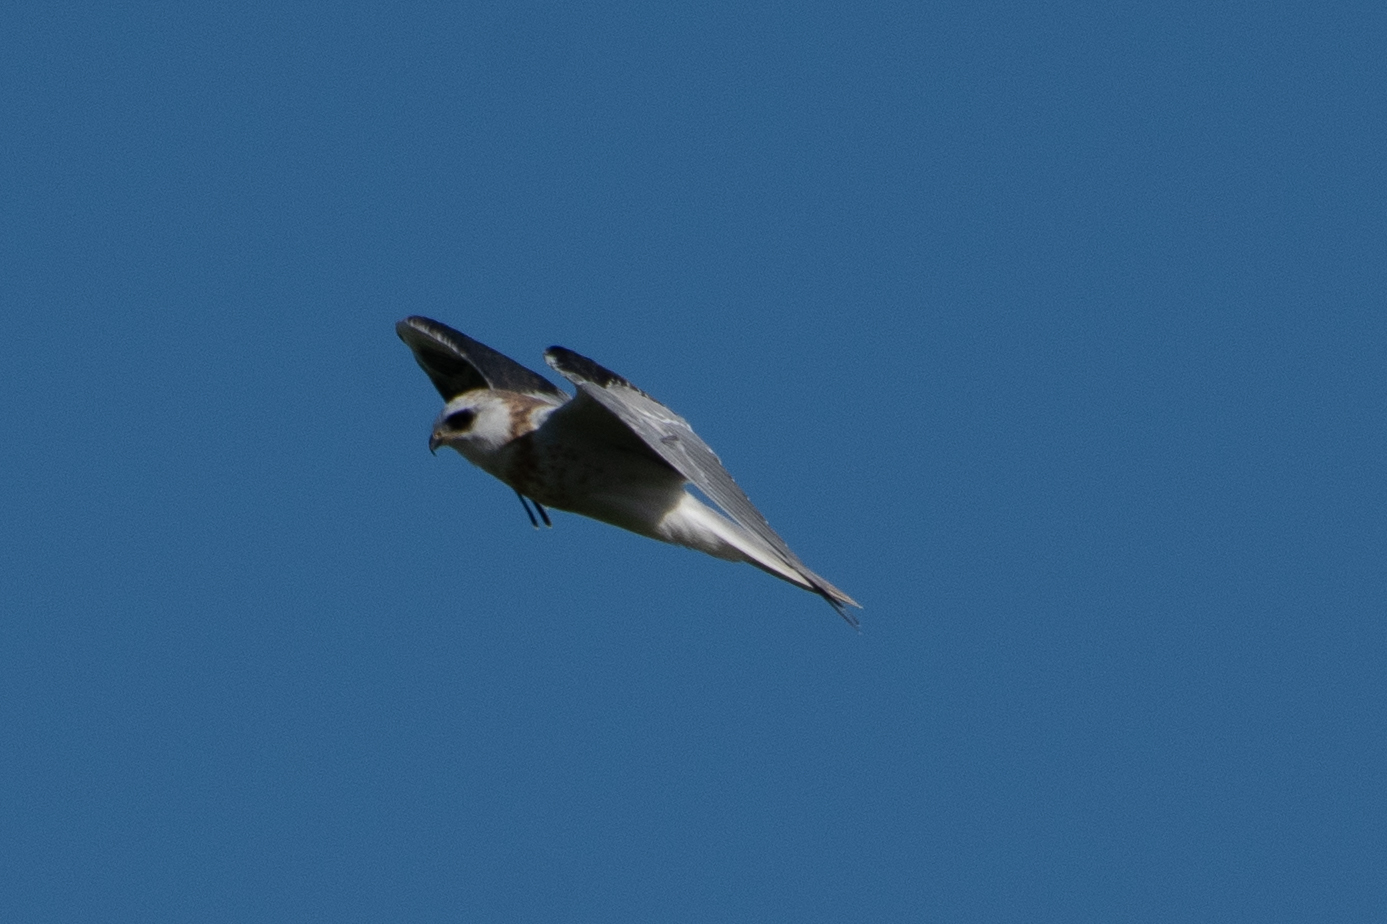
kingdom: Animalia
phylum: Chordata
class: Aves
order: Accipitriformes
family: Accipitridae
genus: Elanus
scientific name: Elanus leucurus
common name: White-tailed kite
